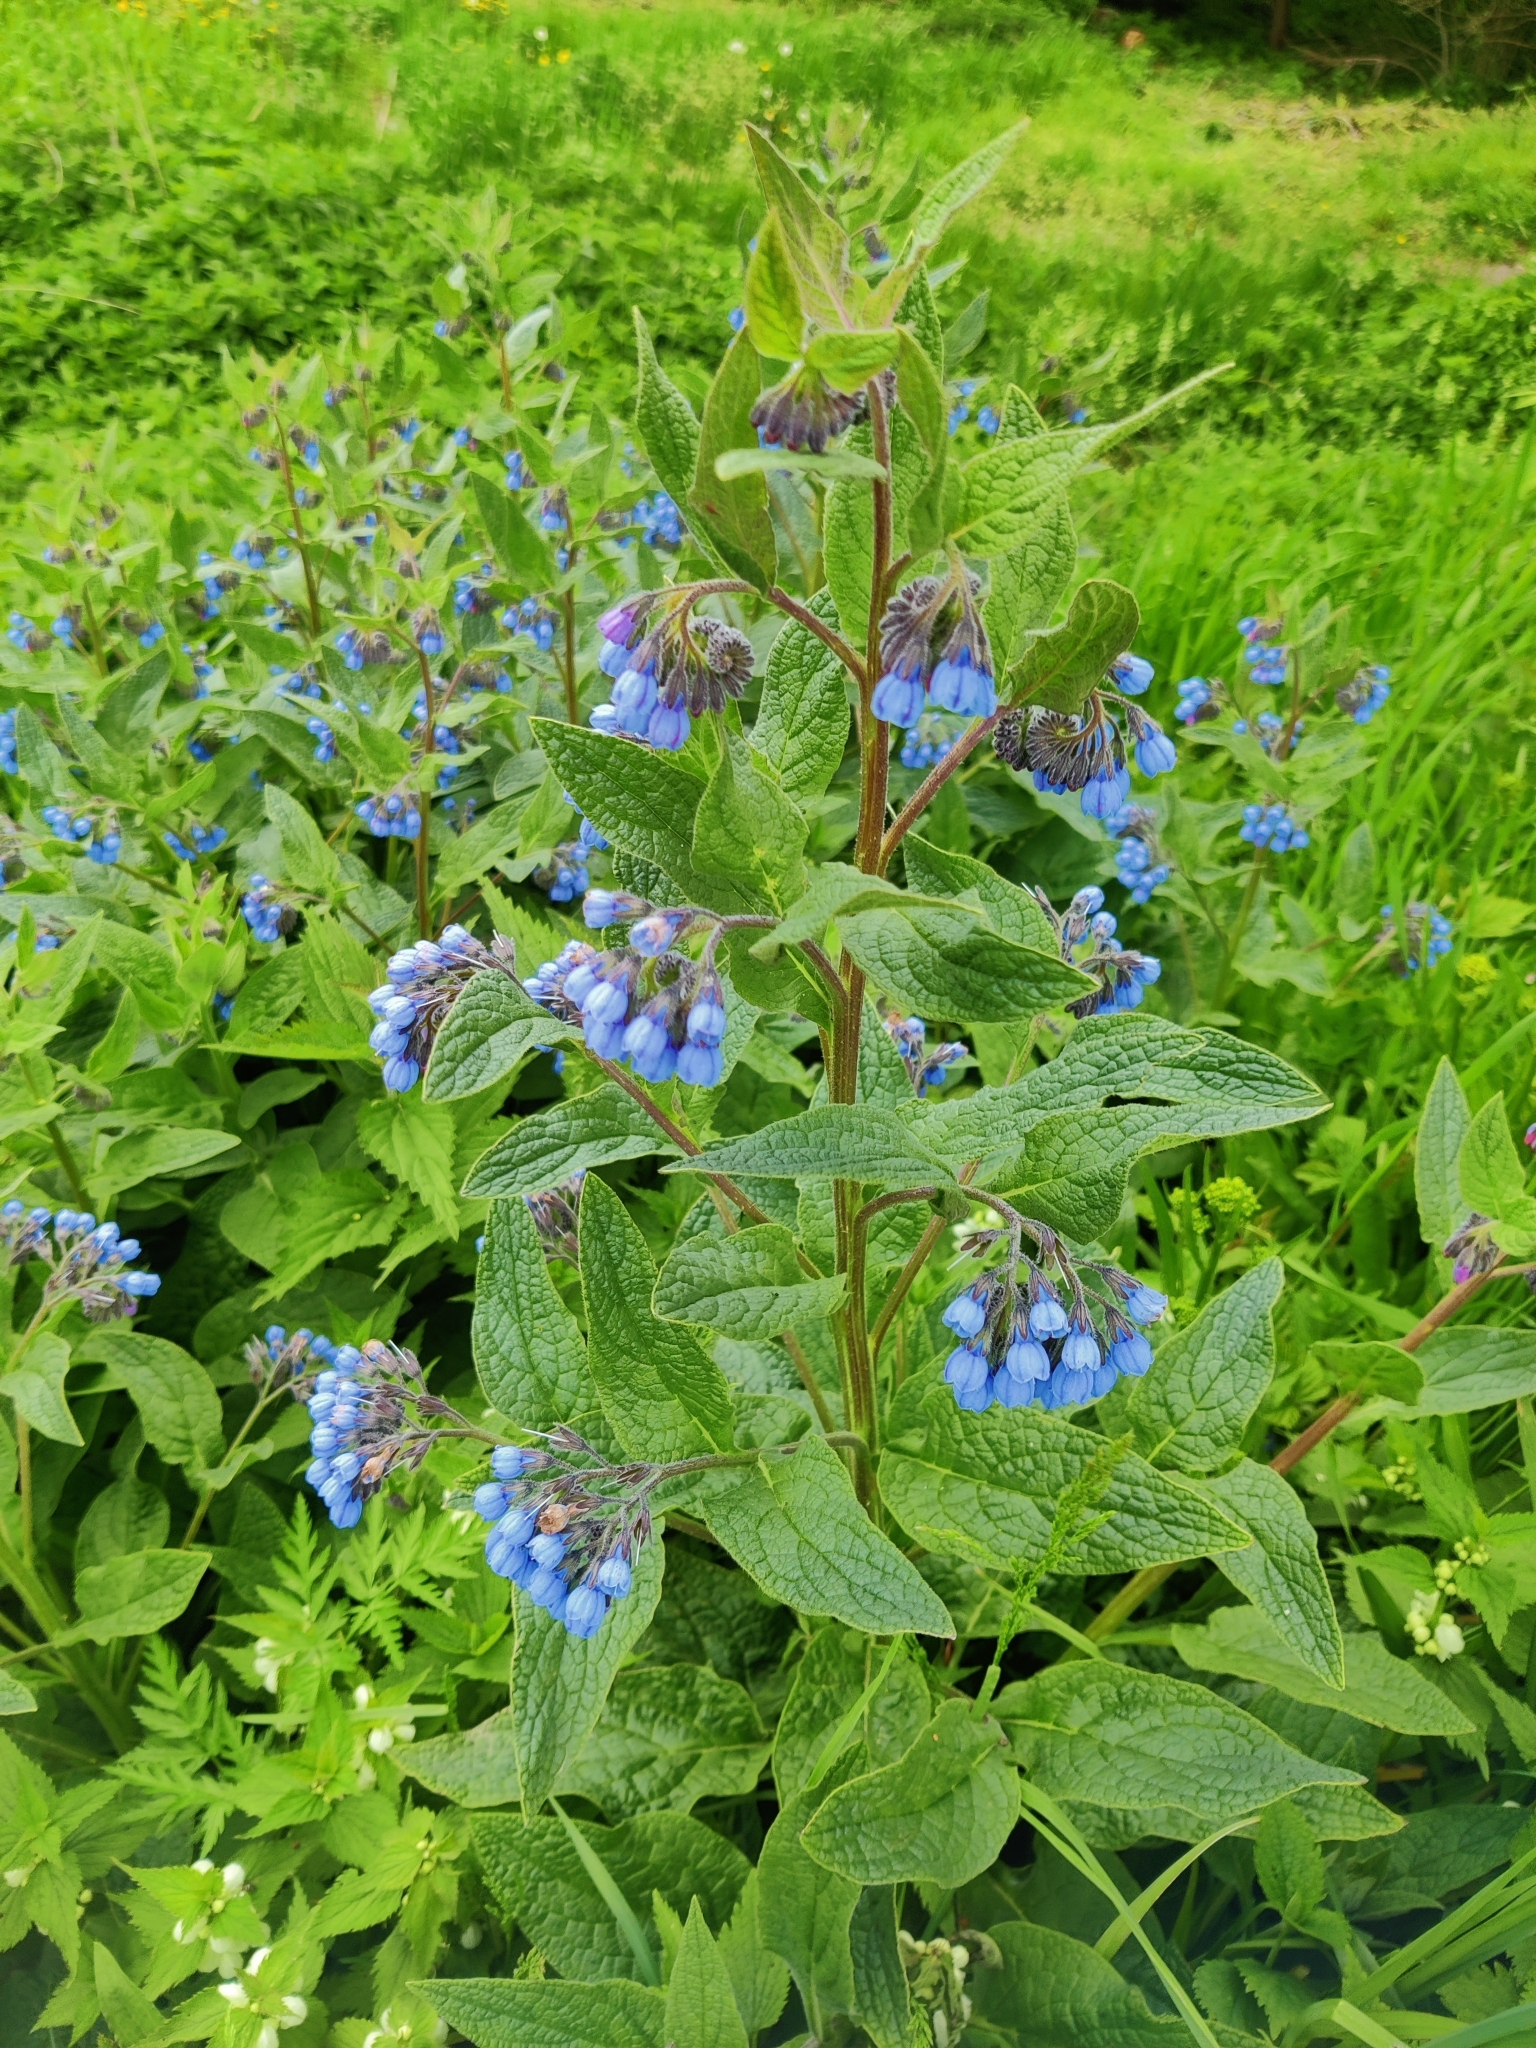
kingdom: Plantae
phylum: Tracheophyta
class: Magnoliopsida
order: Boraginales
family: Boraginaceae
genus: Symphytum
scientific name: Symphytum caucasicum
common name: Caucasian comfrey
